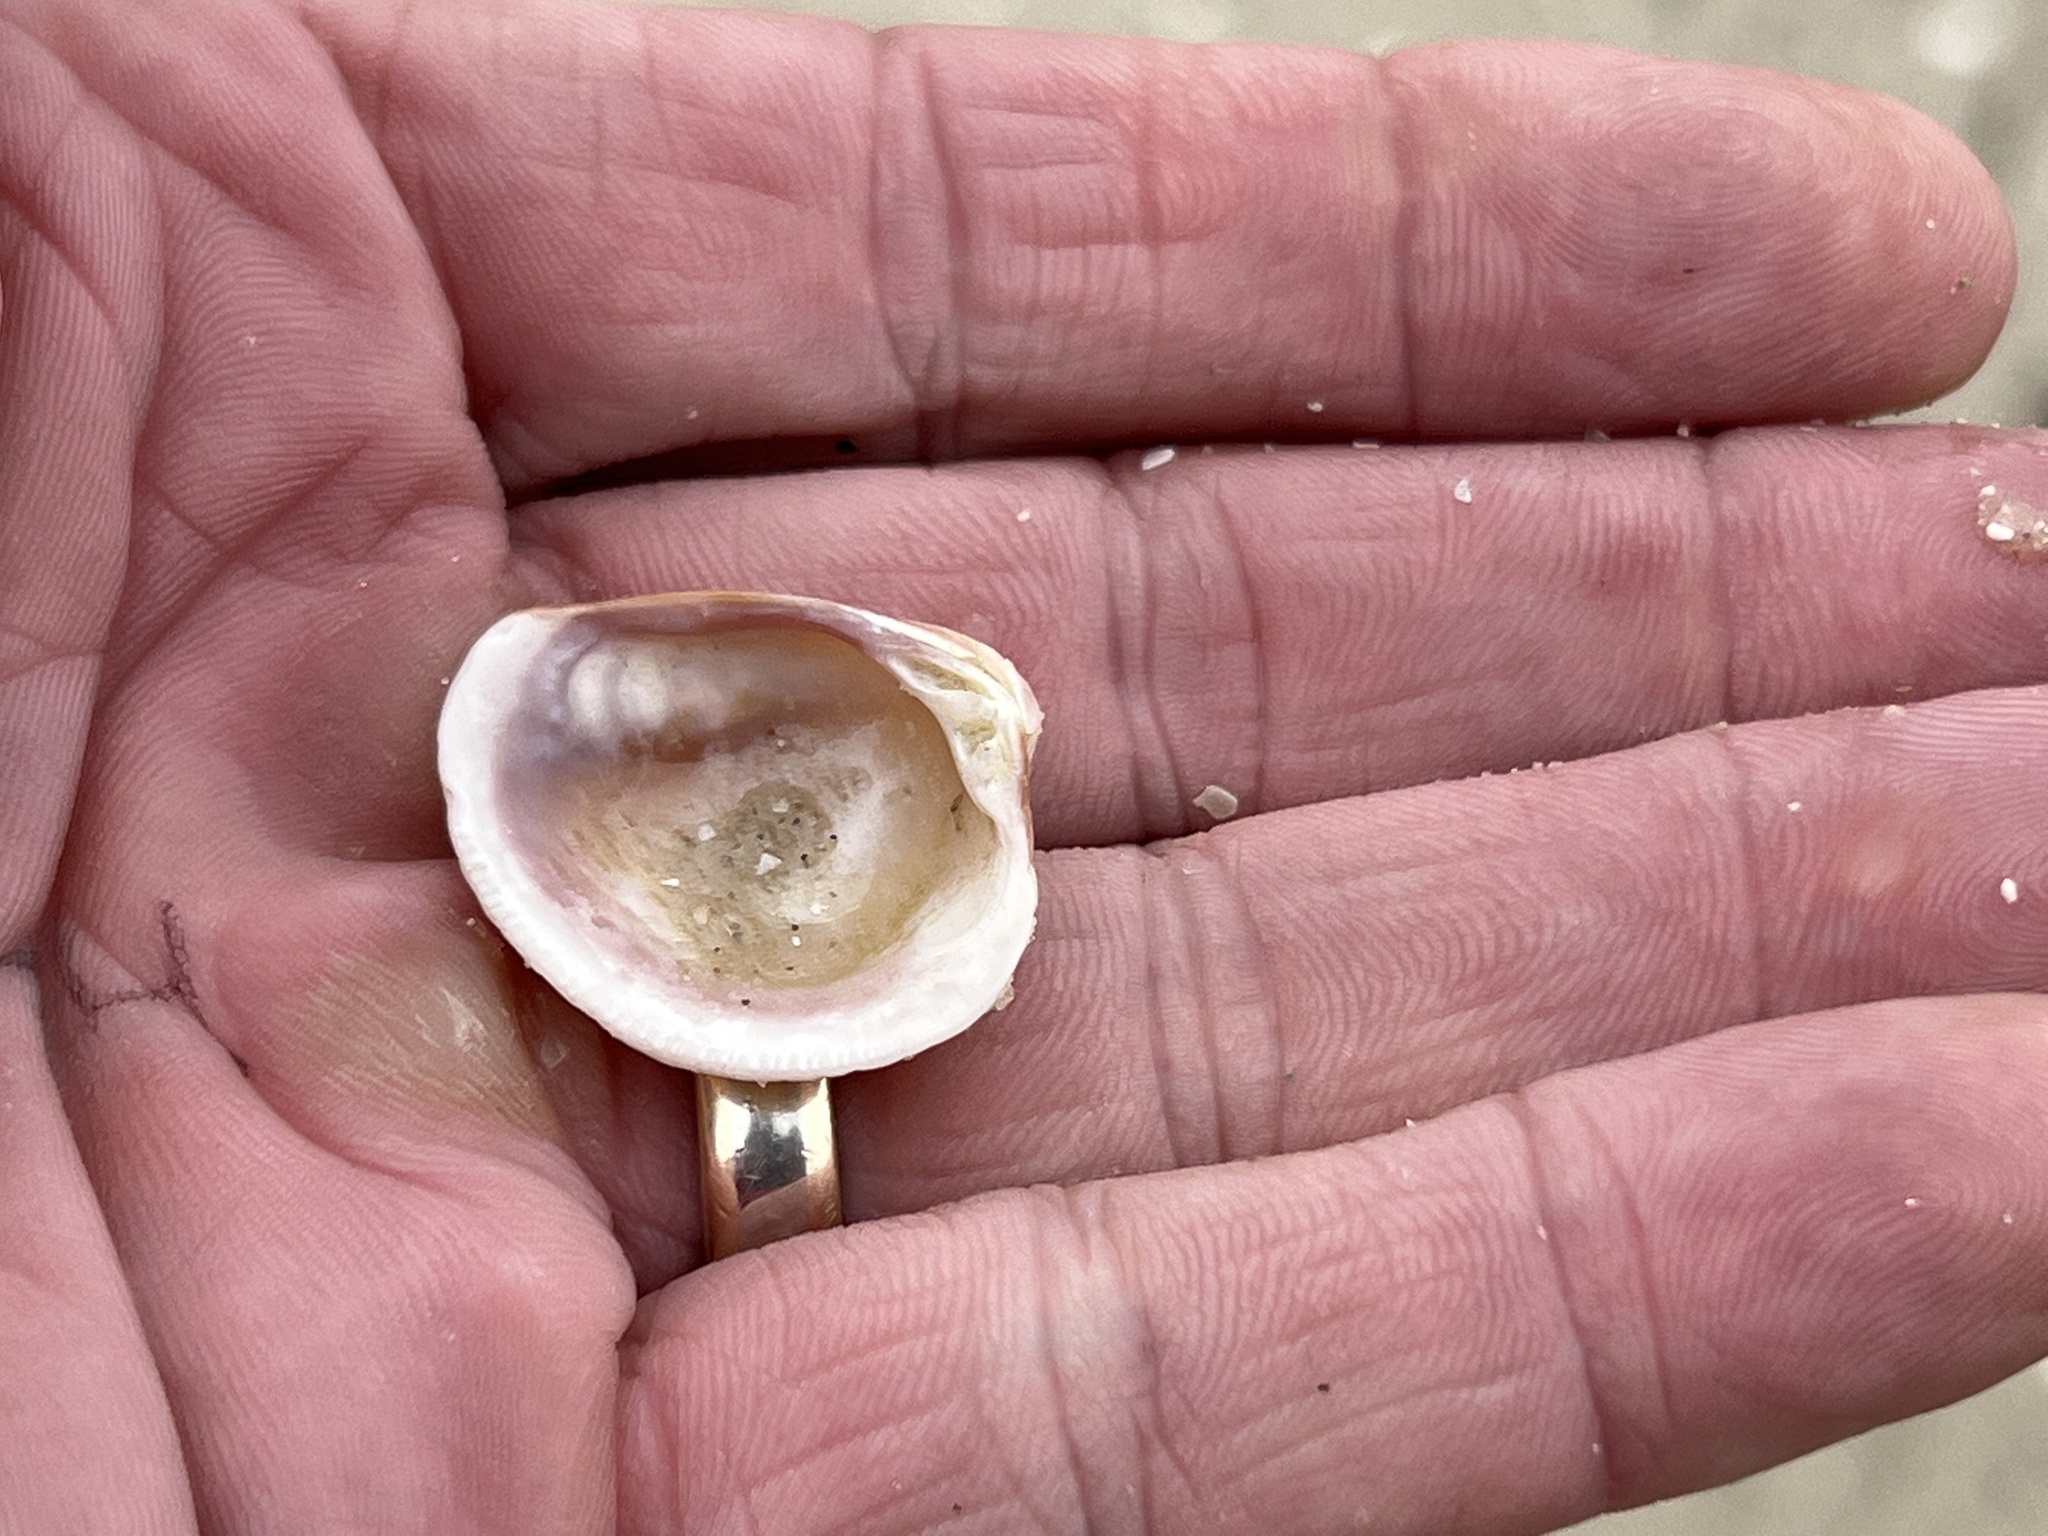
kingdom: Animalia
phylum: Mollusca
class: Bivalvia
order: Venerida
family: Veneridae
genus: Chione
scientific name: Chione elevata
